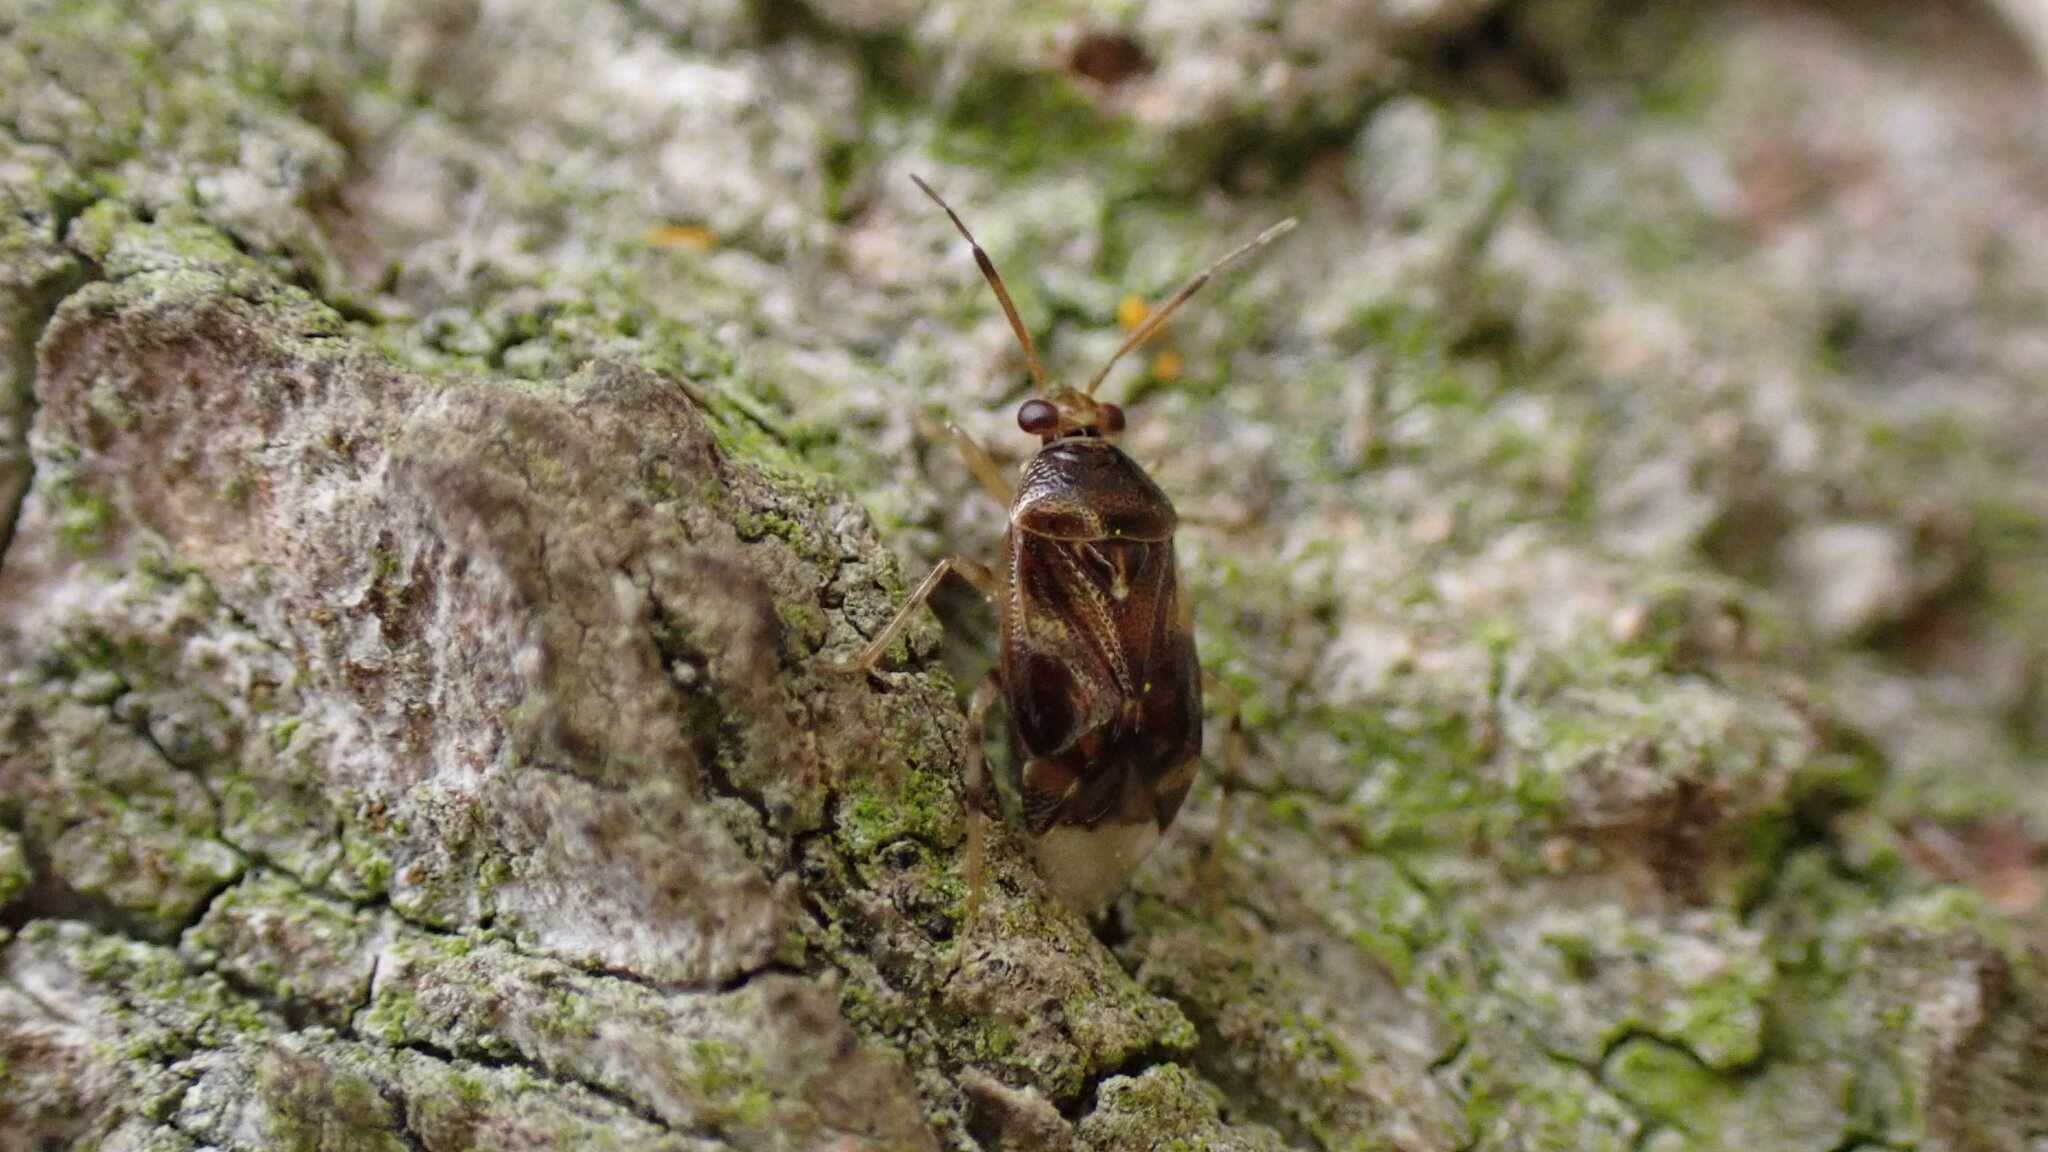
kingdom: Animalia
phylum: Arthropoda
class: Insecta
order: Hemiptera
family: Miridae
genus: Deraeocoris
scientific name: Deraeocoris lutescens
